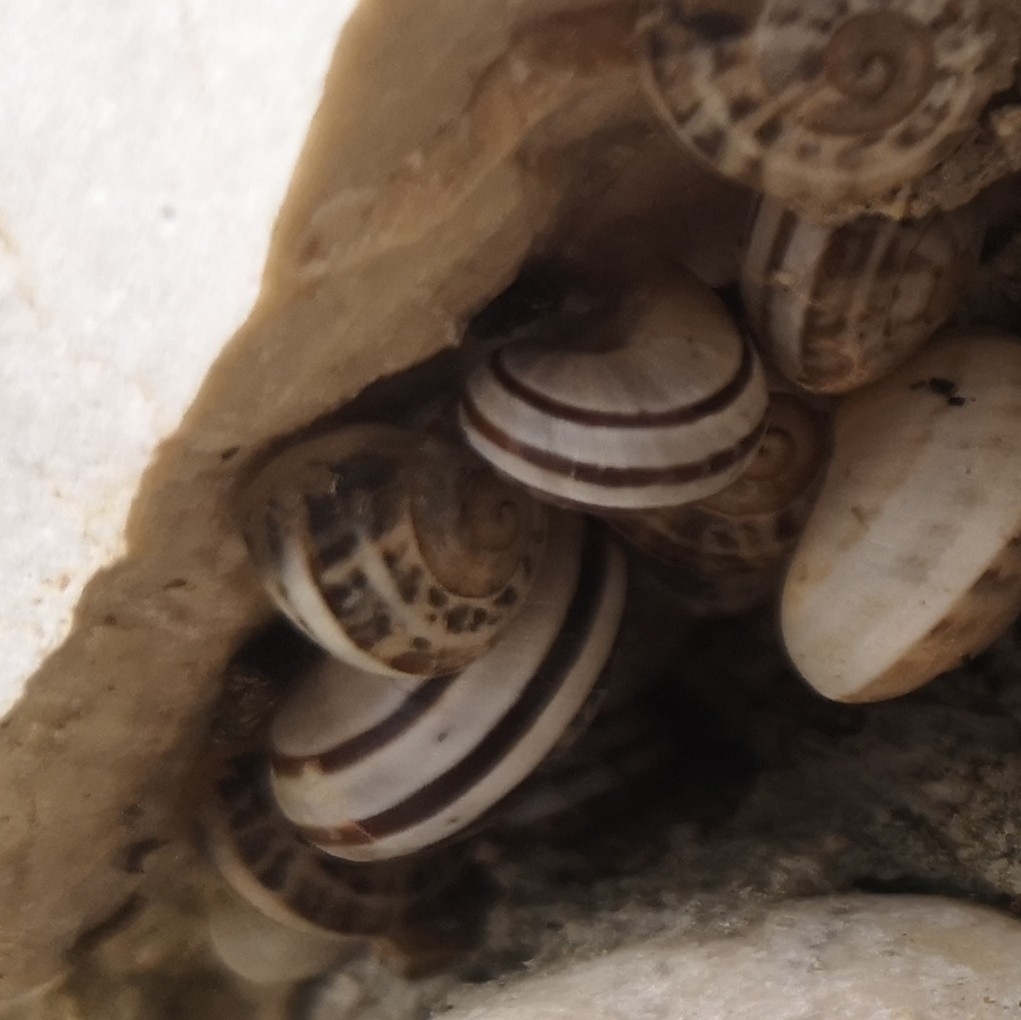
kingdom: Animalia
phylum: Mollusca
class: Gastropoda
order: Stylommatophora
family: Helicidae
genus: Eobania
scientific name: Eobania vermiculata
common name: Chocolateband snail
